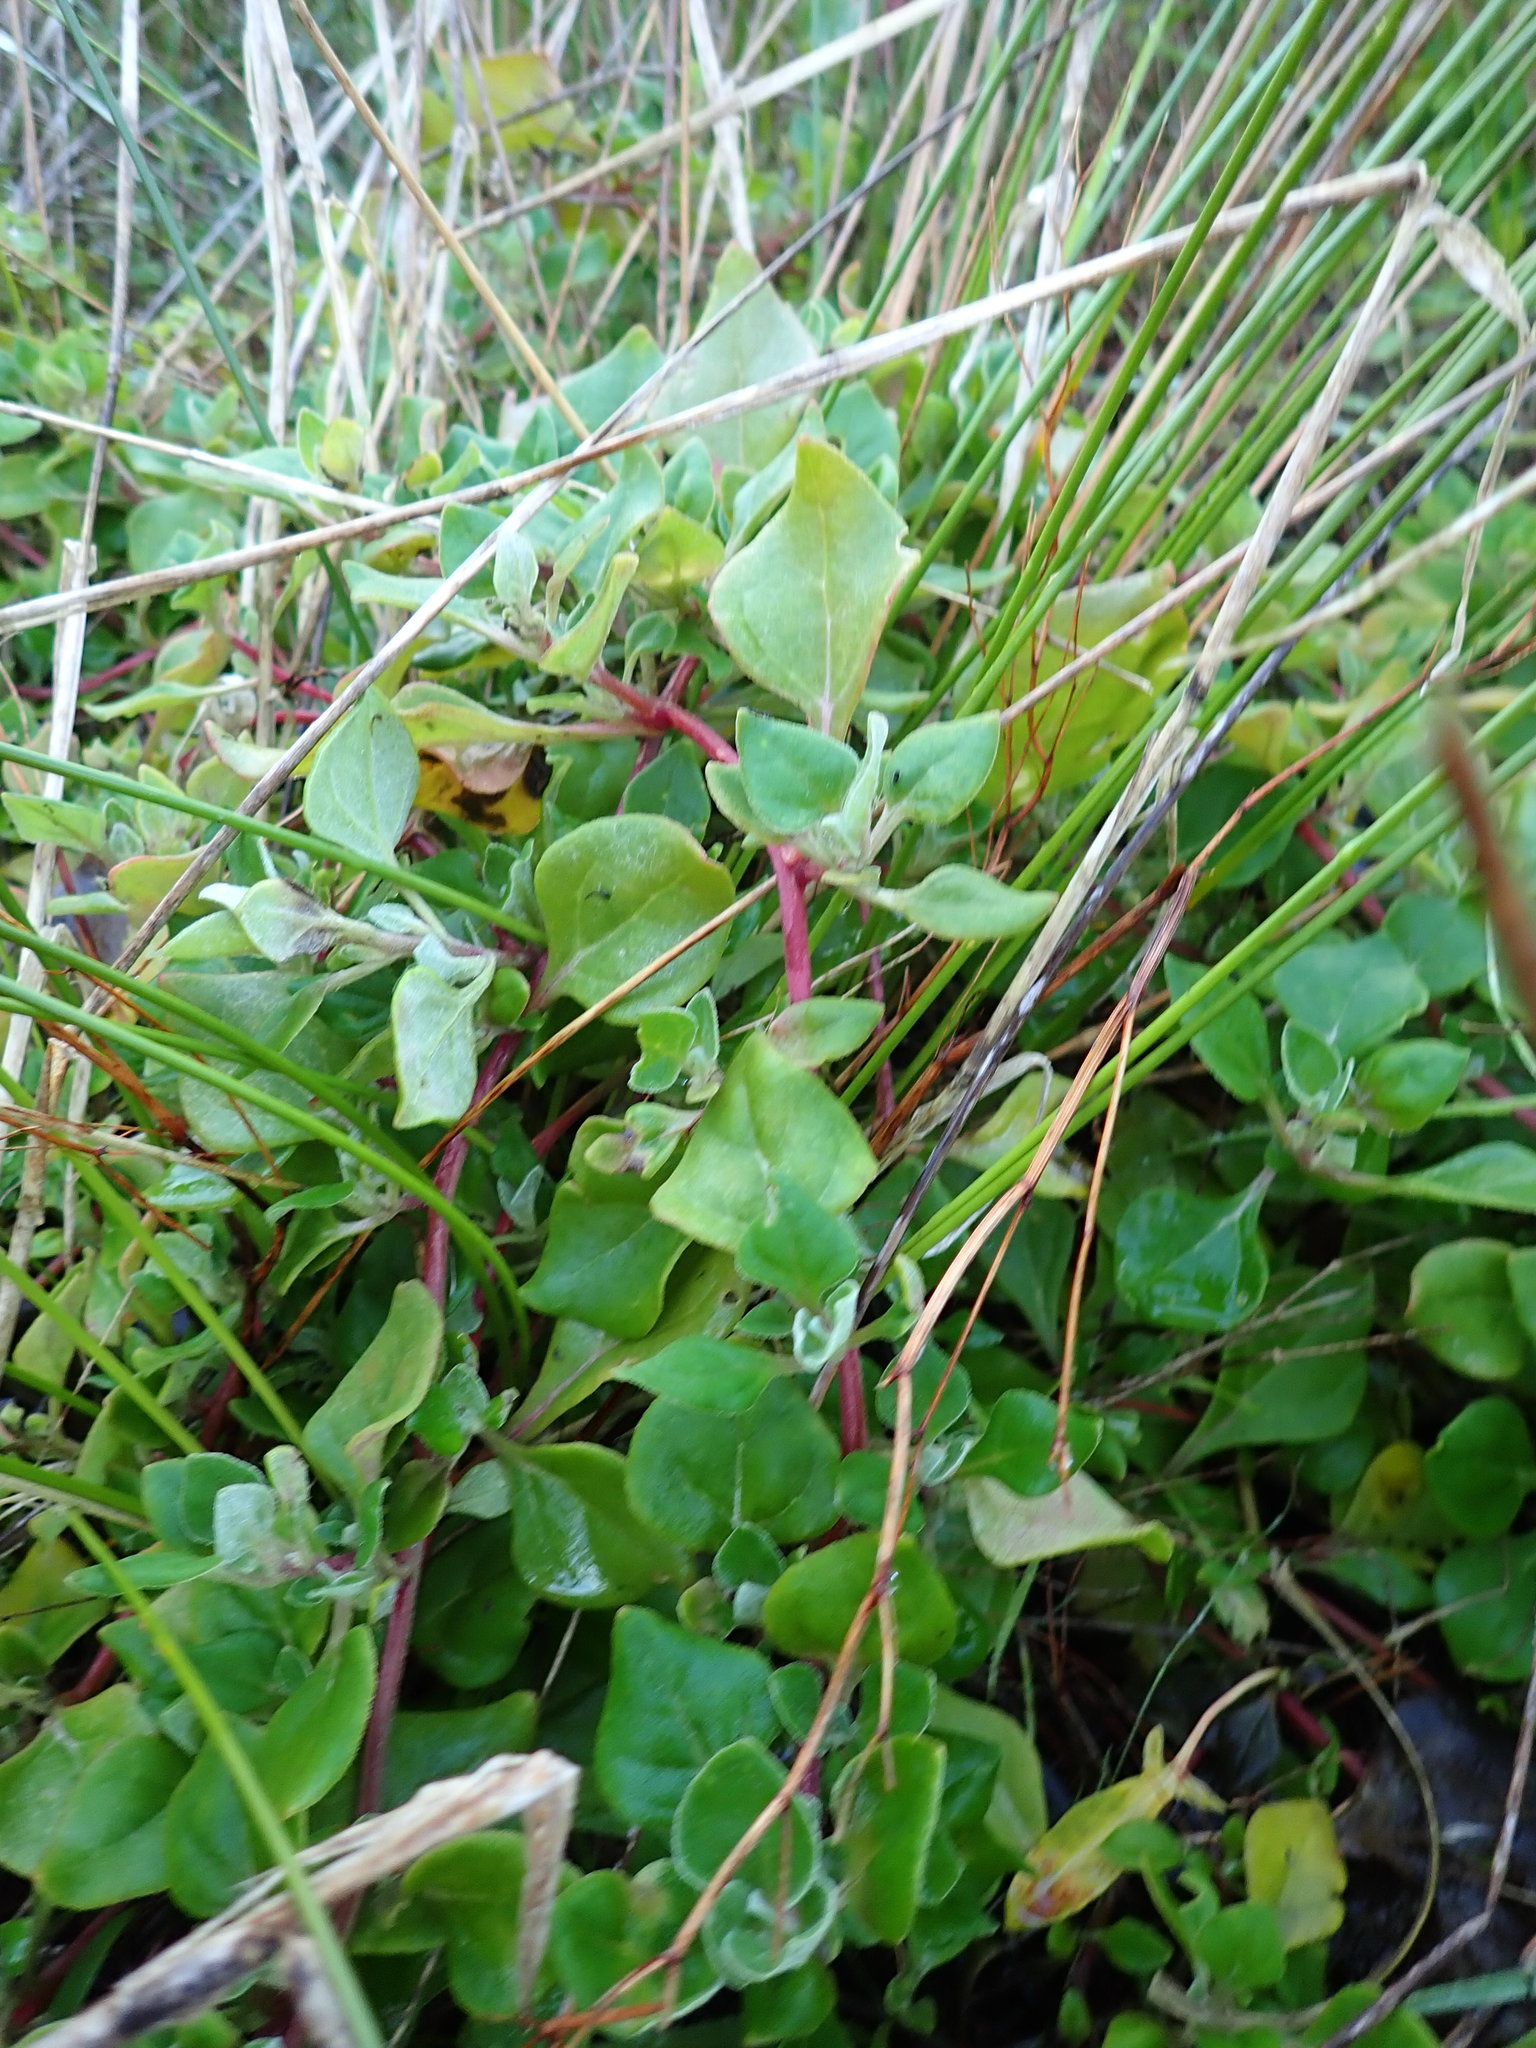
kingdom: Plantae
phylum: Tracheophyta
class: Magnoliopsida
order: Caryophyllales
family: Aizoaceae
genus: Tetragonia
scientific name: Tetragonia implexicoma
